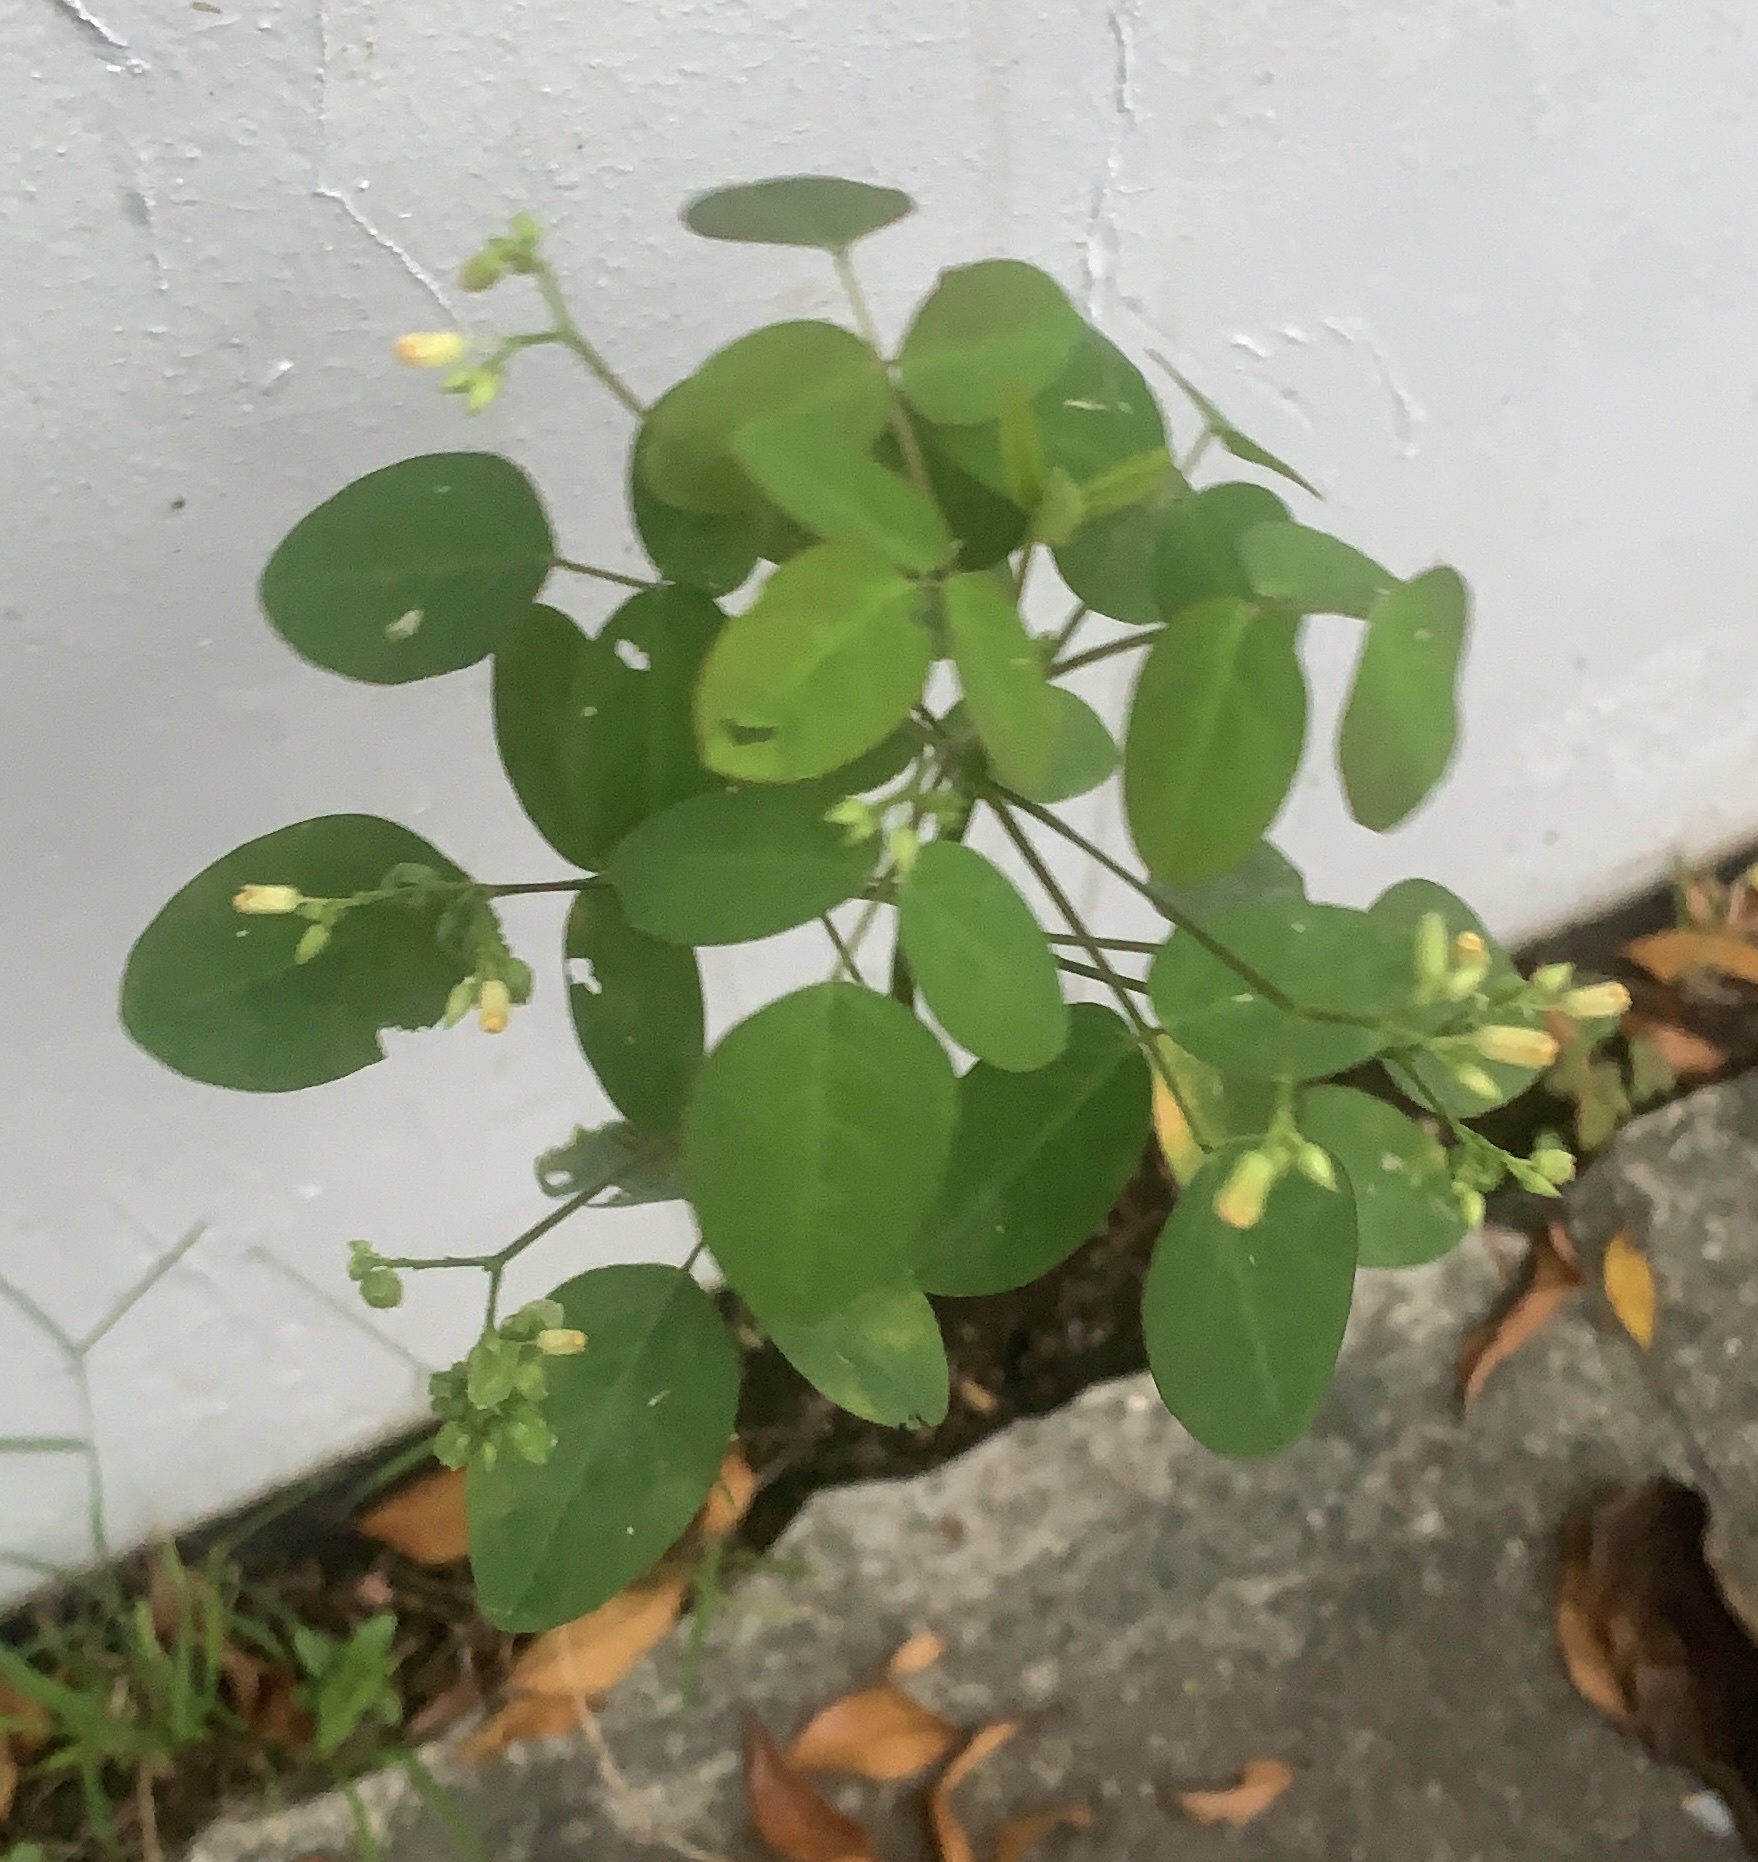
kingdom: Plantae
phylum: Tracheophyta
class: Magnoliopsida
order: Oxalidales
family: Oxalidaceae
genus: Oxalis
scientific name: Oxalis barrelieri
